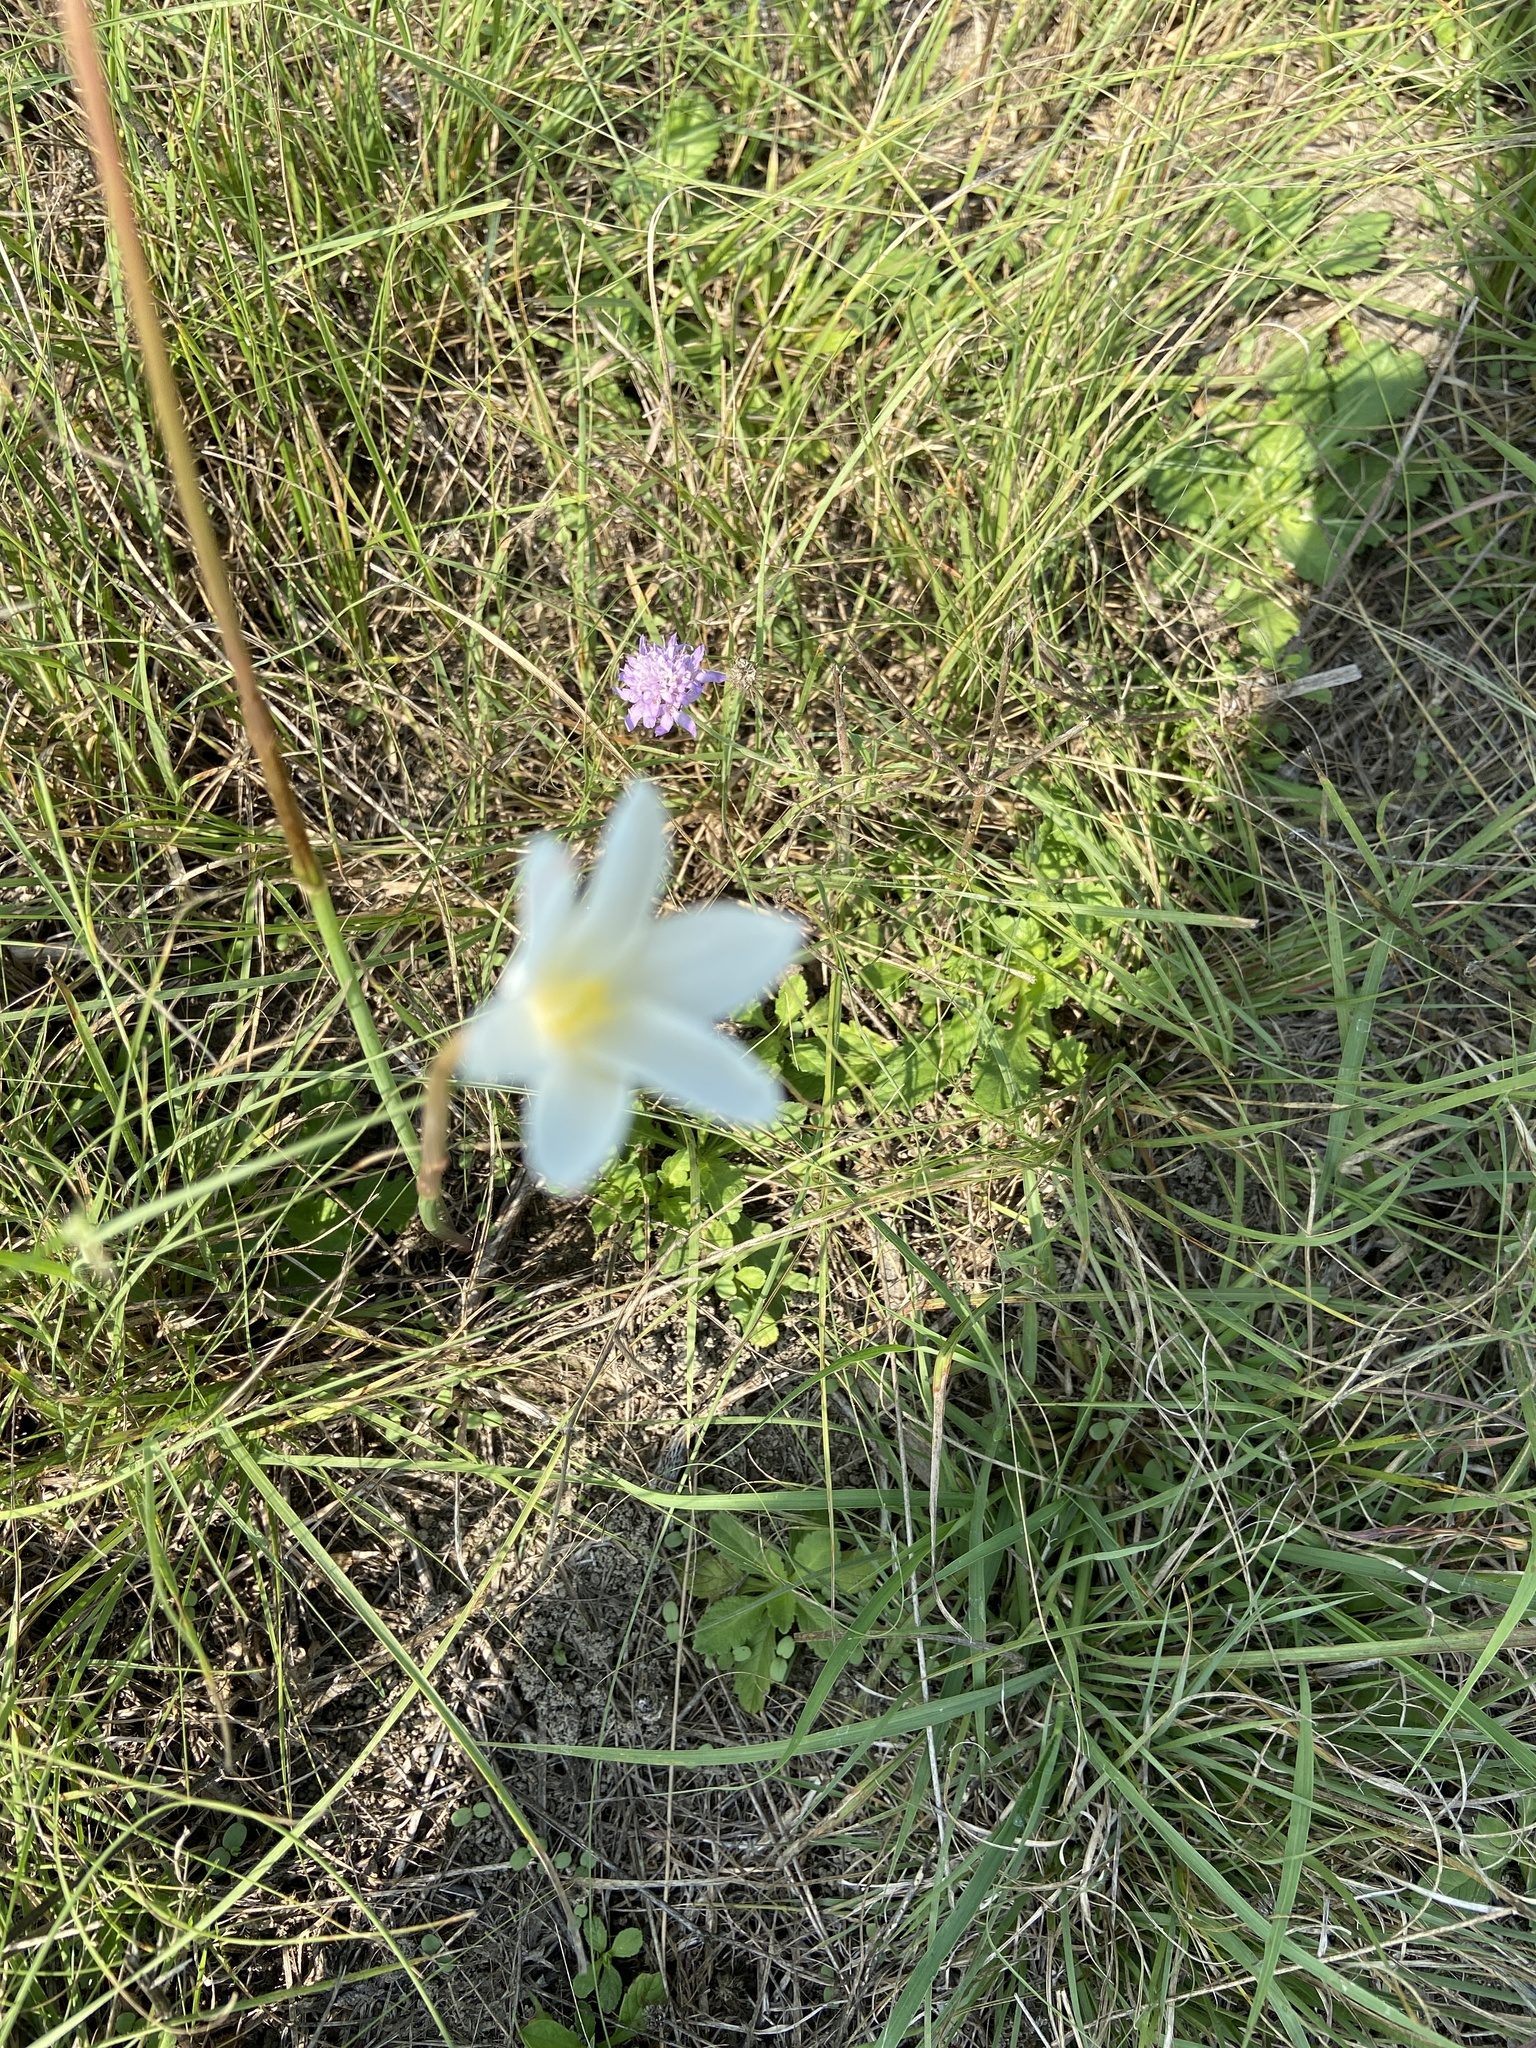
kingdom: Plantae
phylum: Tracheophyta
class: Liliopsida
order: Asparagales
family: Amaryllidaceae
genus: Zephyranthes
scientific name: Zephyranthes chlorosolen
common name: Evening rain-lily
